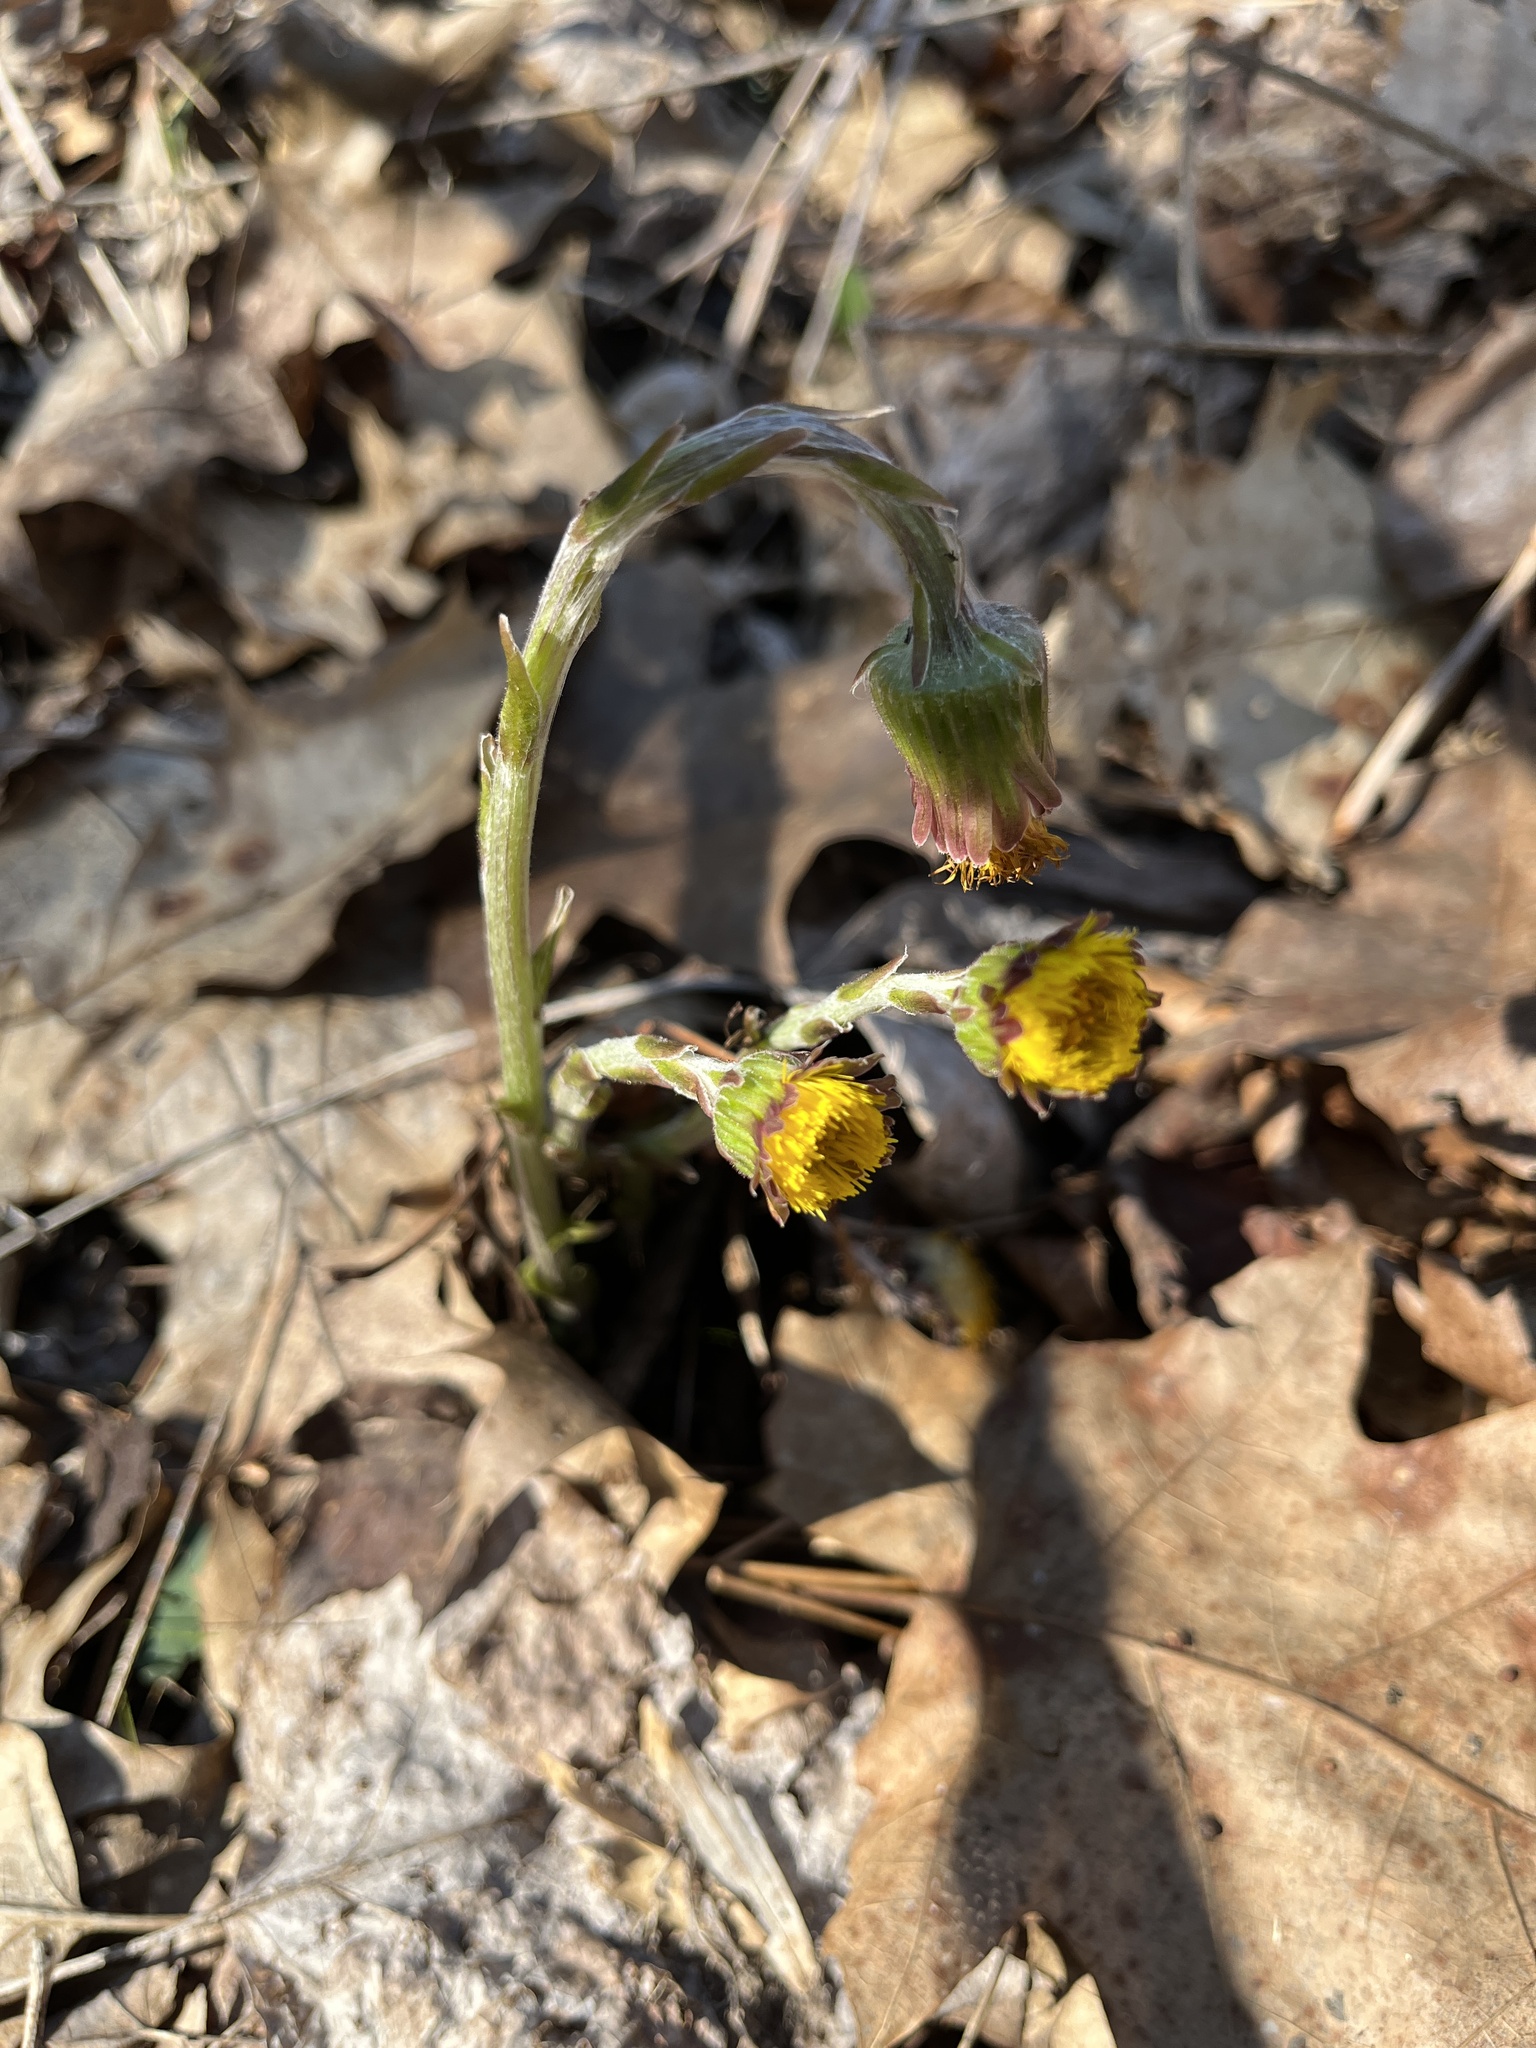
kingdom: Plantae
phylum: Tracheophyta
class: Magnoliopsida
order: Asterales
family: Asteraceae
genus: Tussilago
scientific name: Tussilago farfara
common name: Coltsfoot
